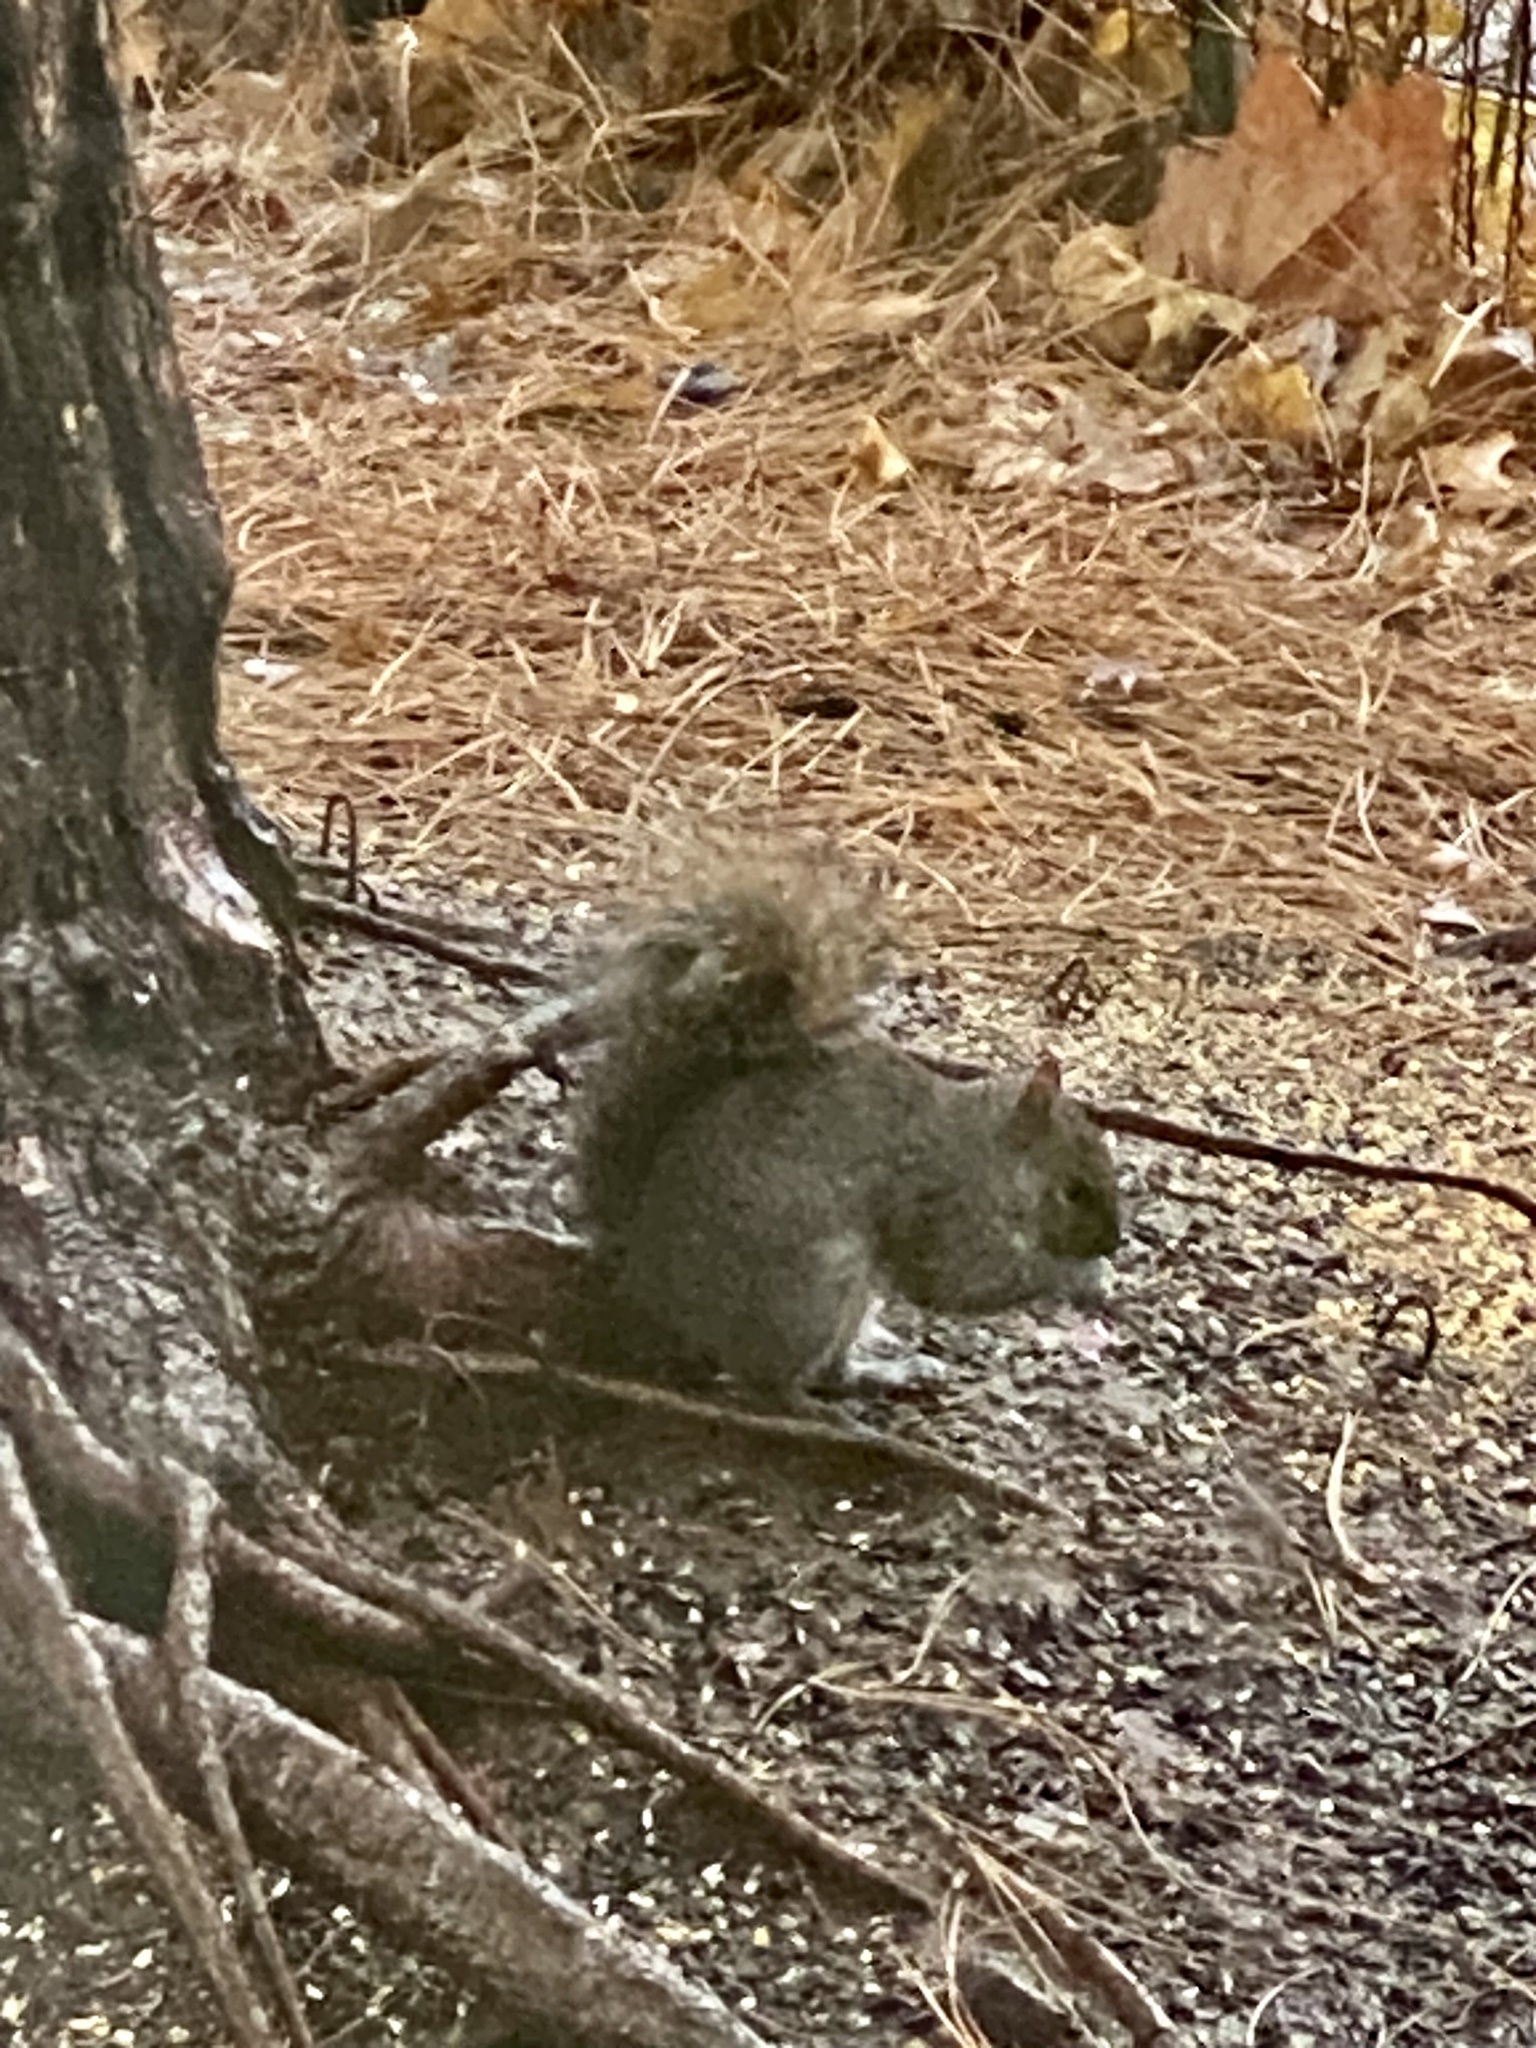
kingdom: Animalia
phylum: Chordata
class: Mammalia
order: Rodentia
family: Sciuridae
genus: Sciurus
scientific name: Sciurus carolinensis
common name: Eastern gray squirrel
